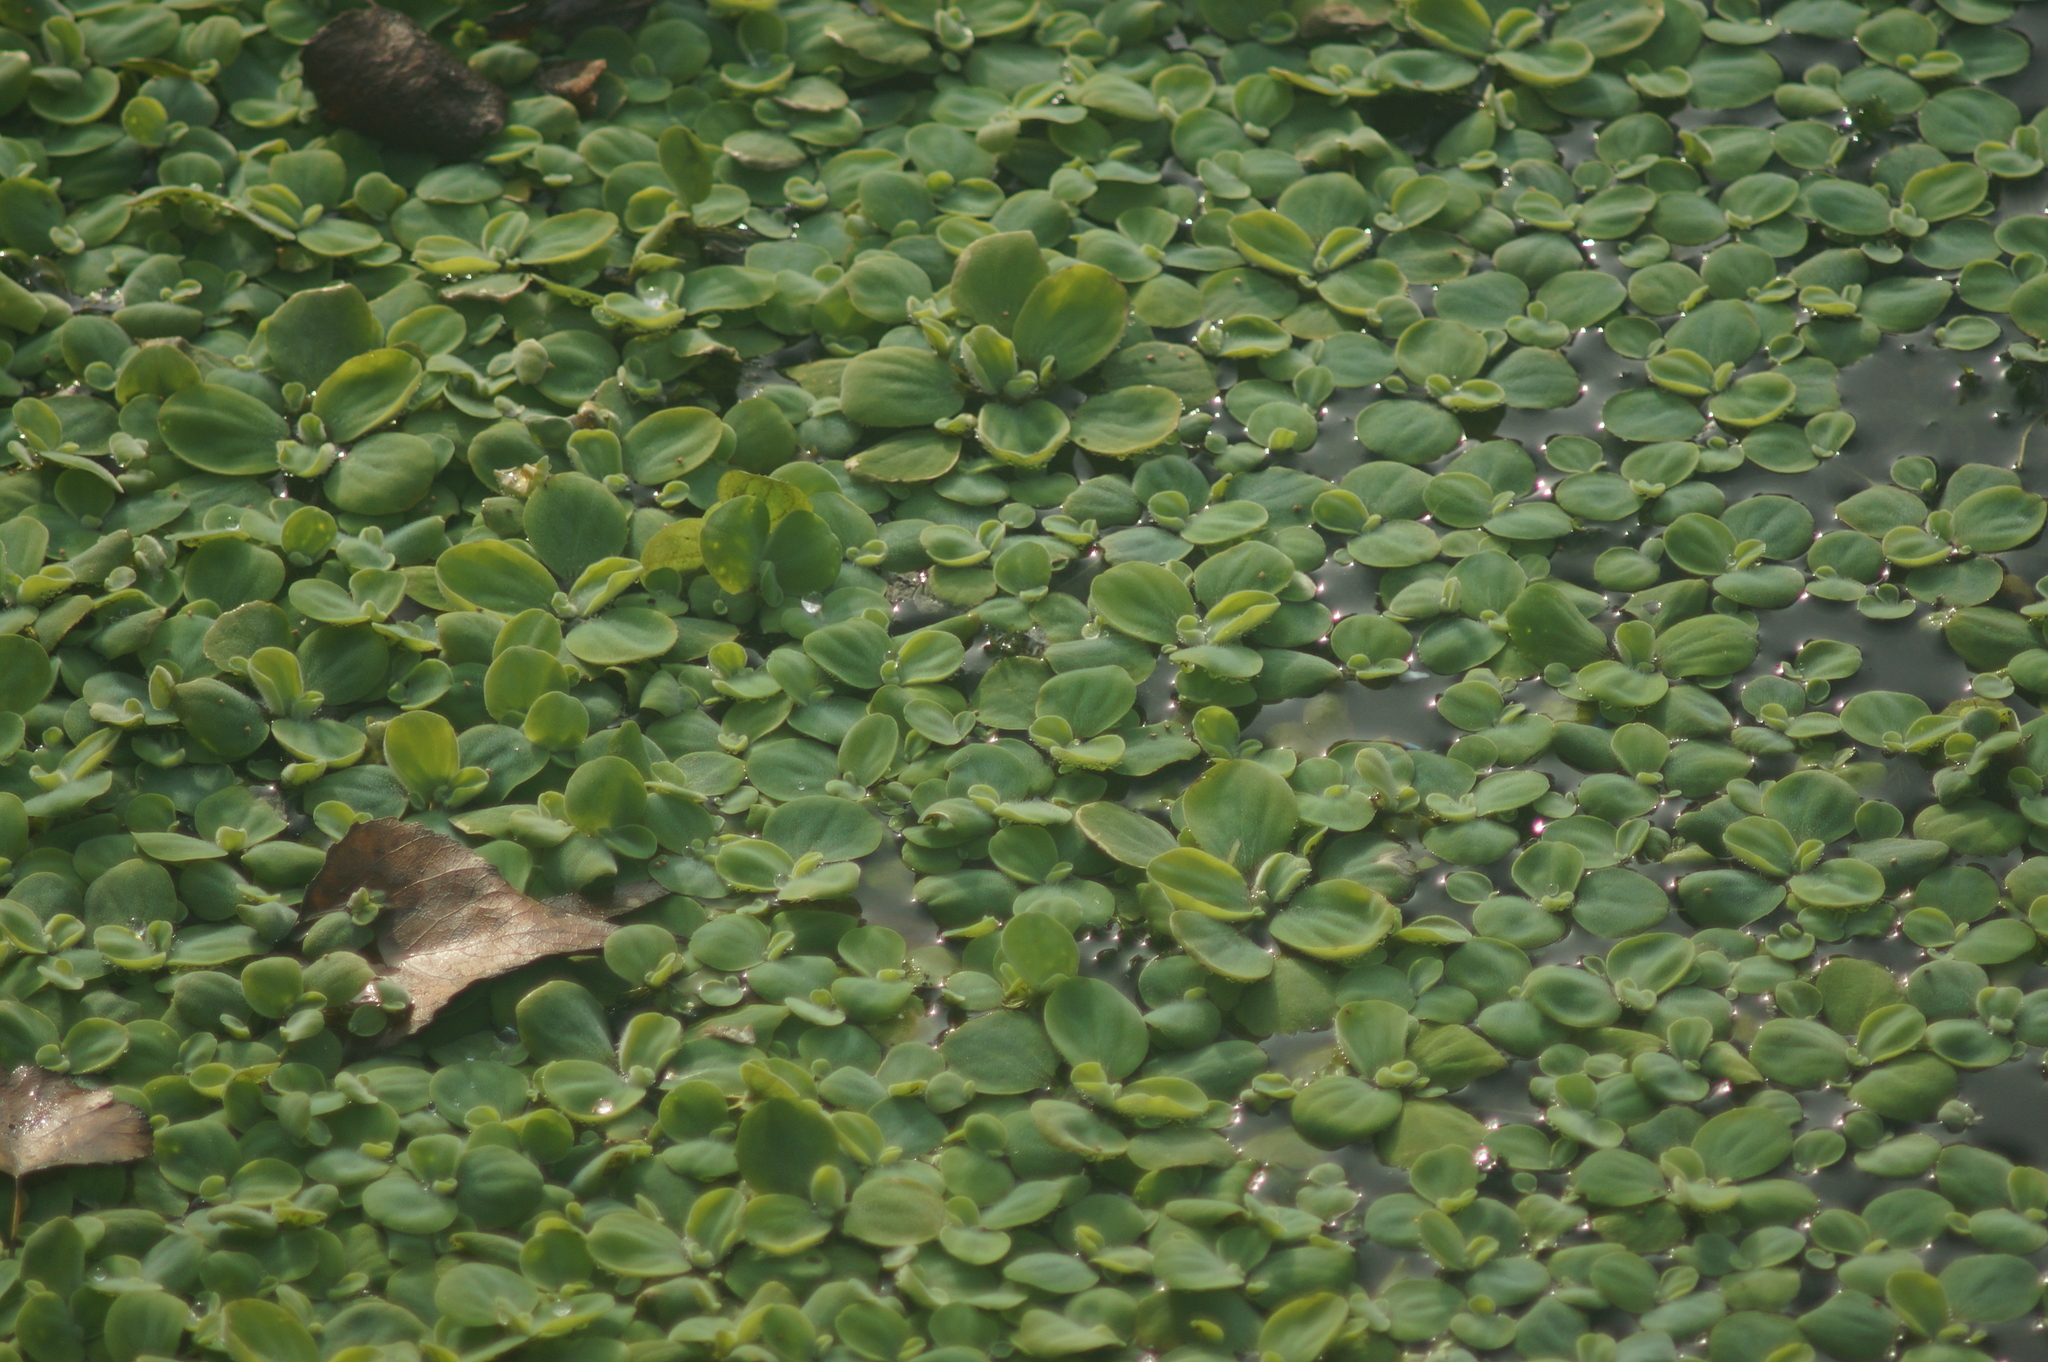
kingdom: Plantae
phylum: Tracheophyta
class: Liliopsida
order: Alismatales
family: Araceae
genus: Pistia
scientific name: Pistia stratiotes
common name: Water lettuce
